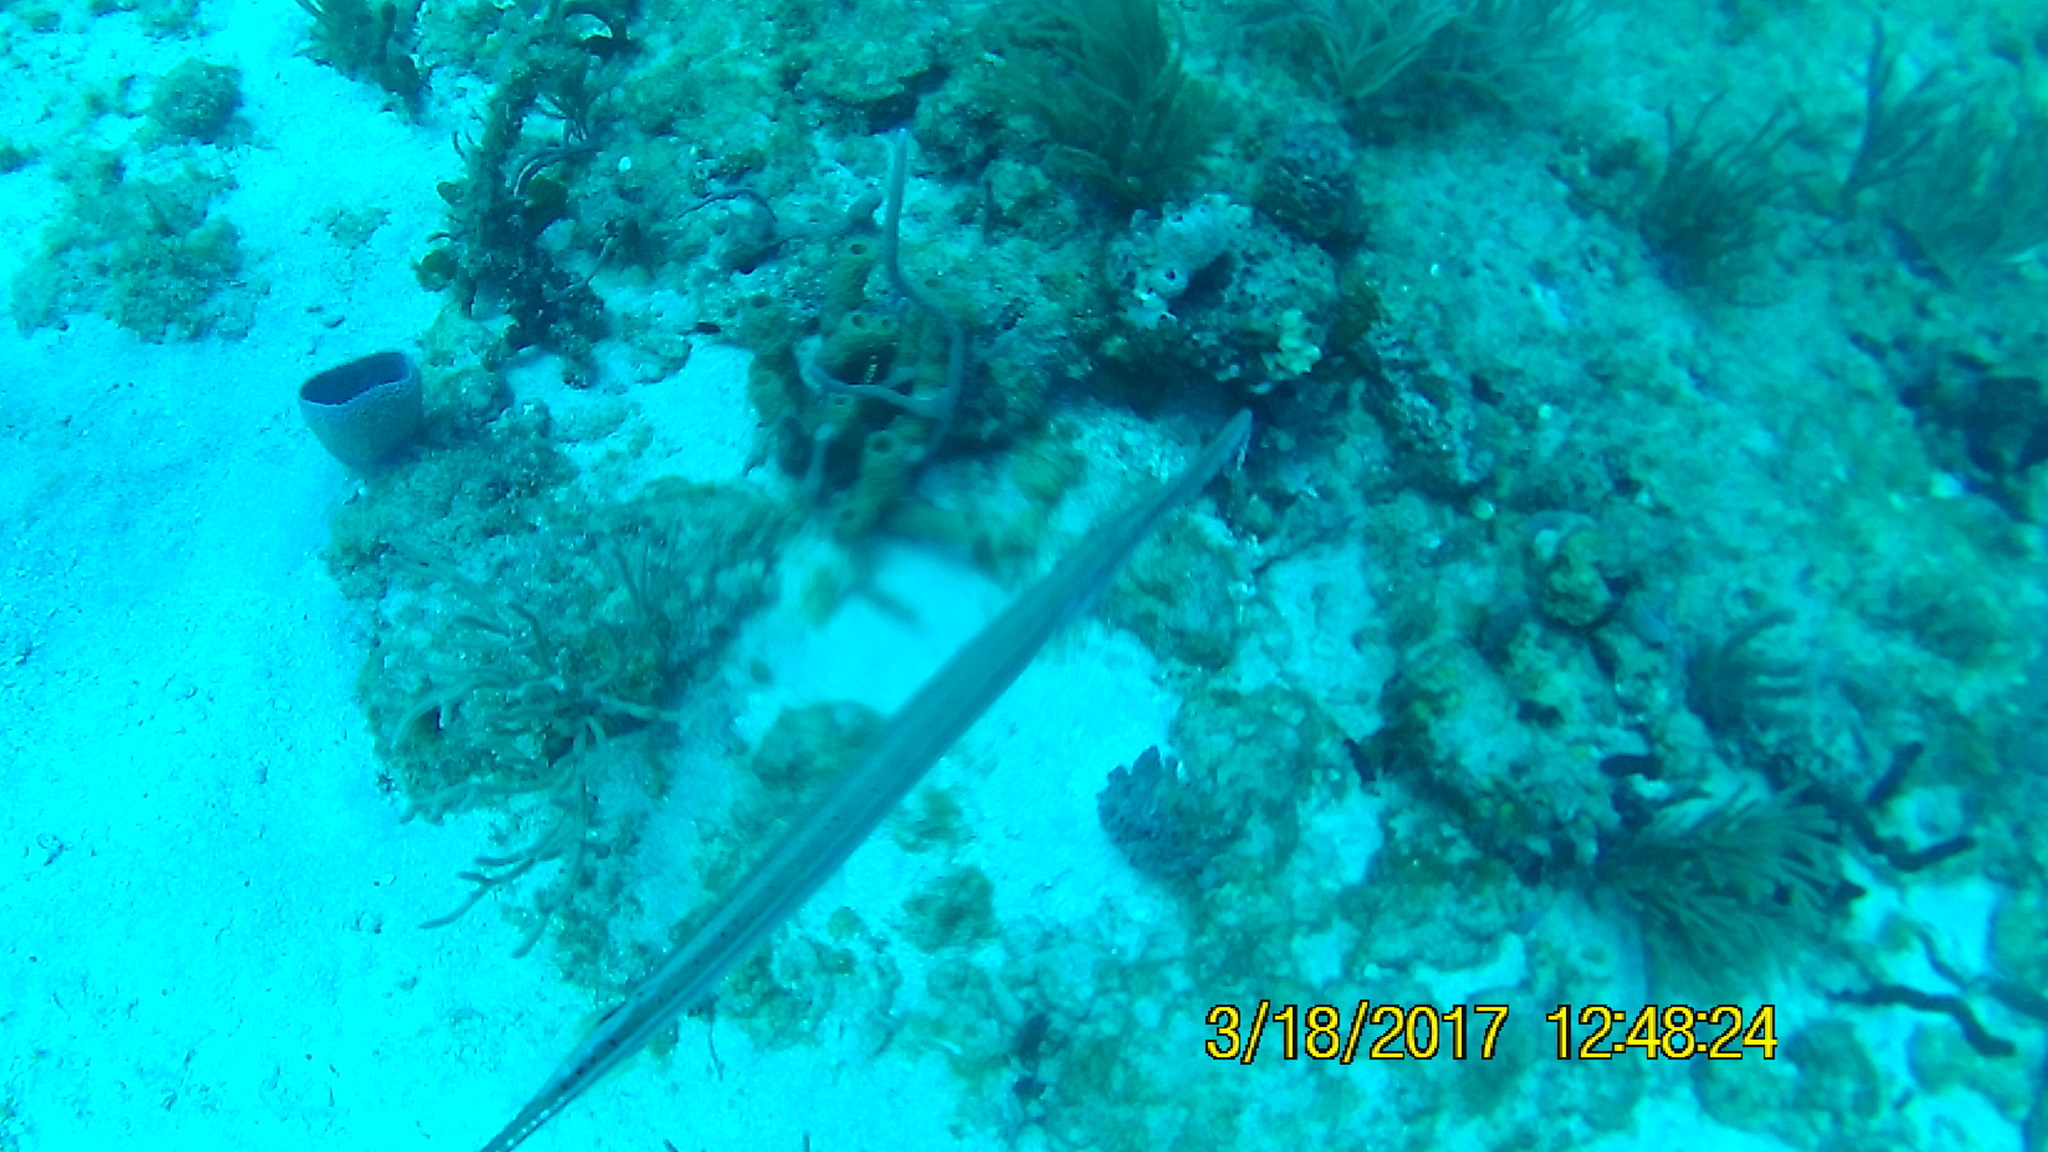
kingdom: Animalia
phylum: Chordata
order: Syngnathiformes
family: Aulostomidae
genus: Aulostomus
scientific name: Aulostomus maculatus
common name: West atlantic trumpetfish
